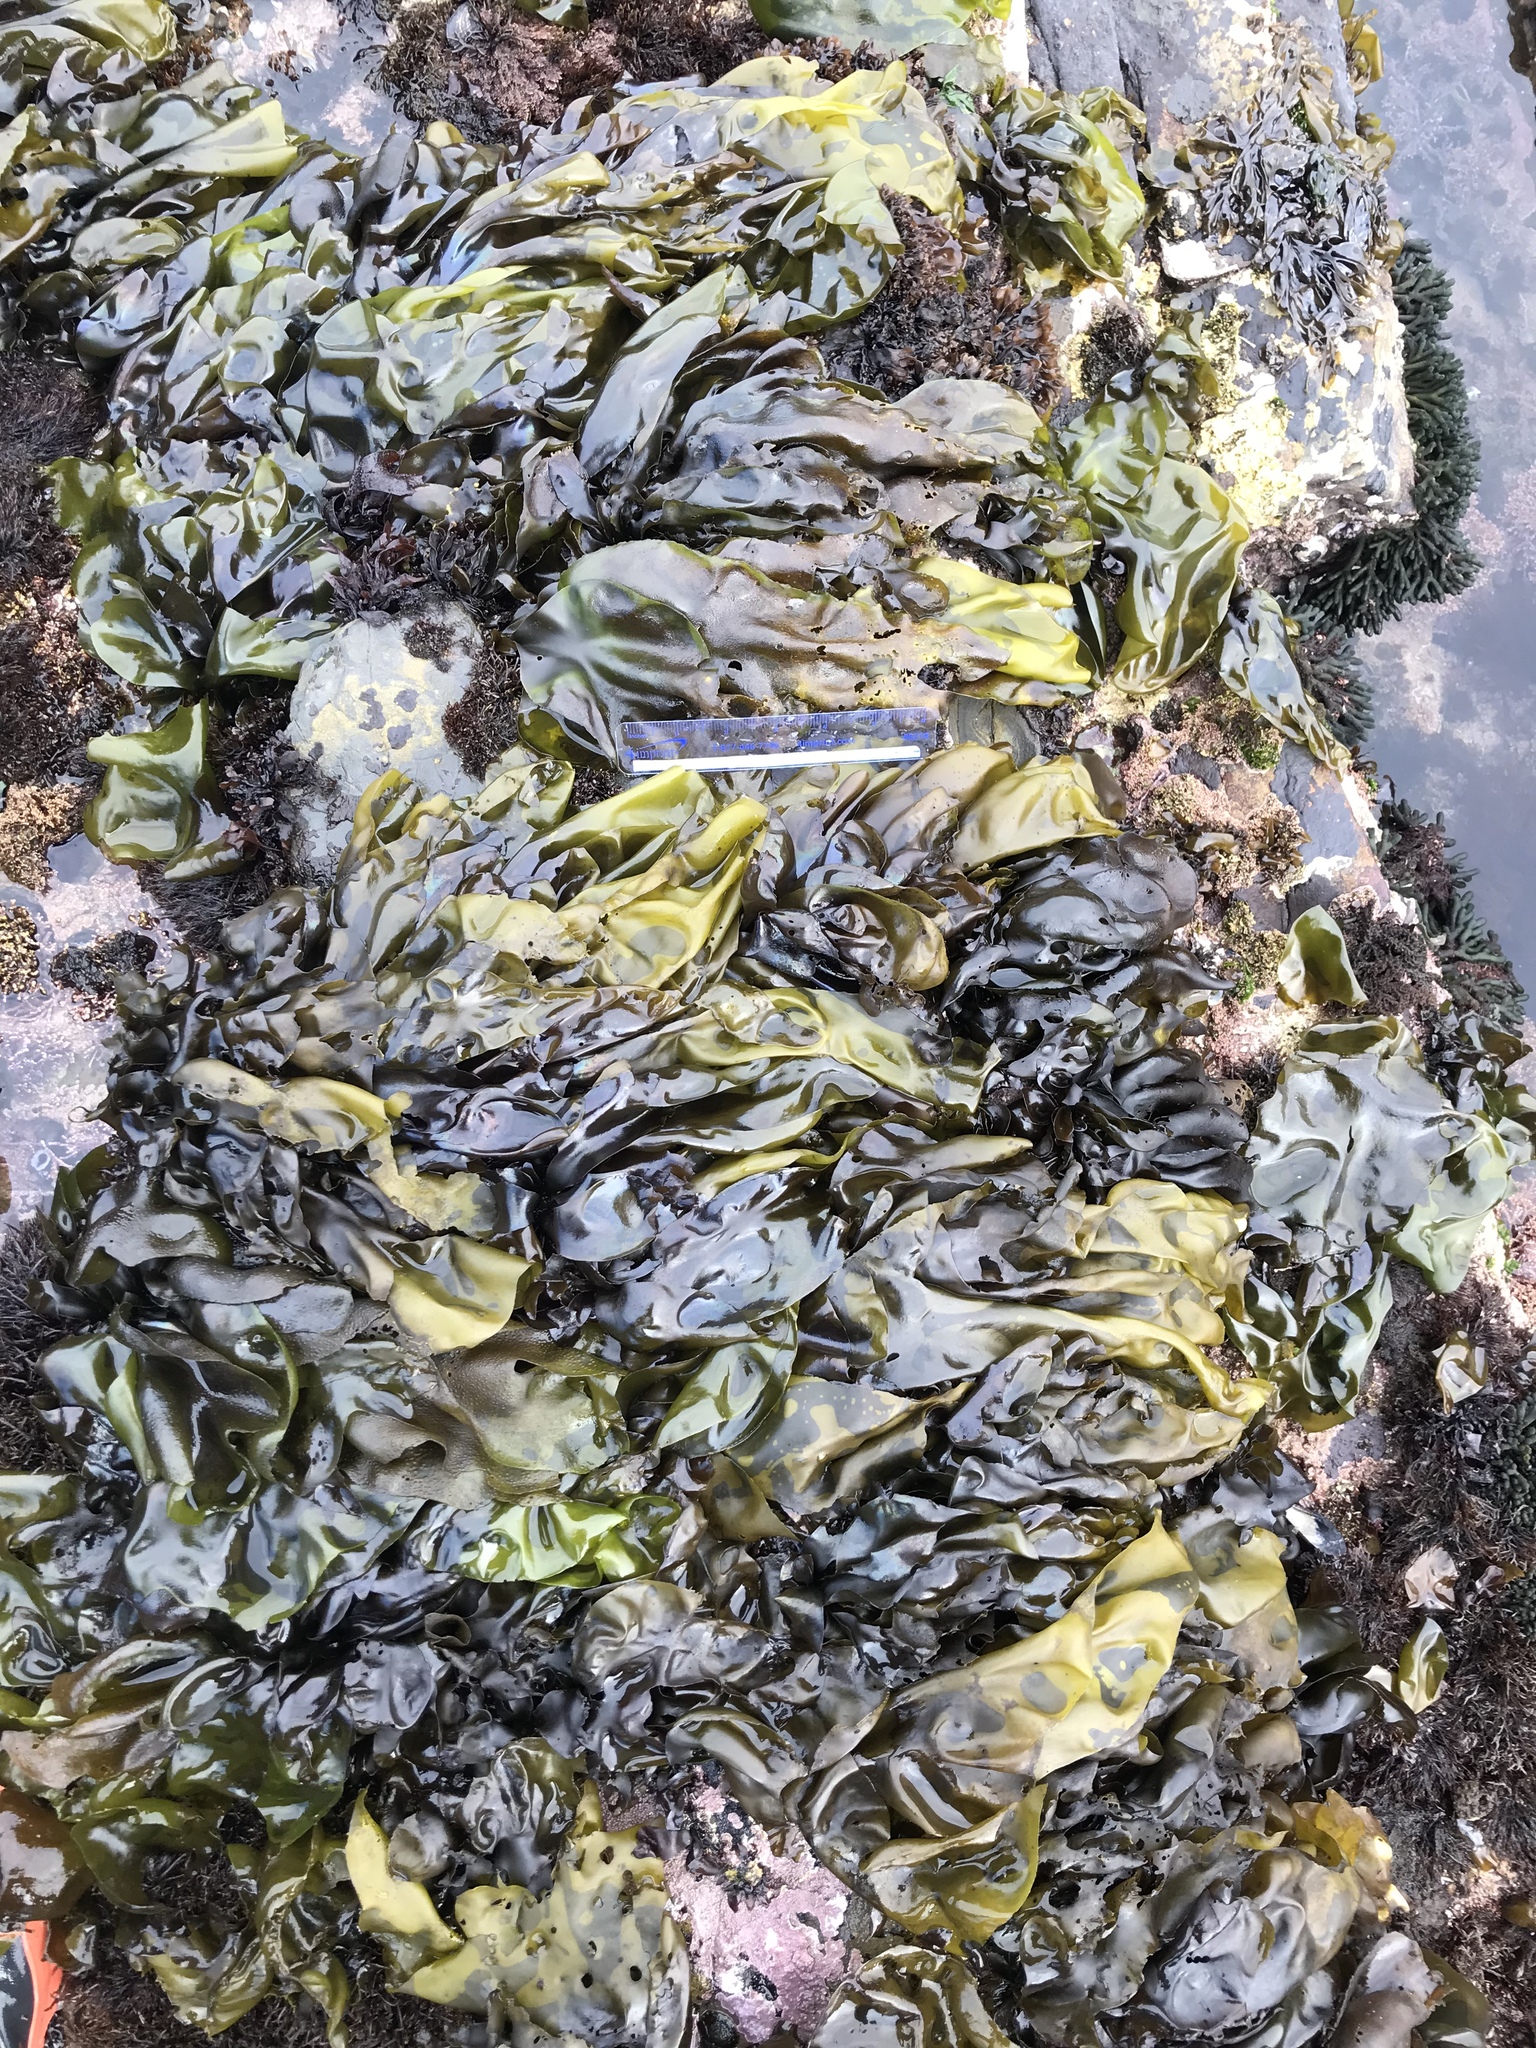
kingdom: Plantae
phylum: Rhodophyta
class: Florideophyceae
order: Gigartinales
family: Gigartinaceae
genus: Mazzaella
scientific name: Mazzaella flaccida
